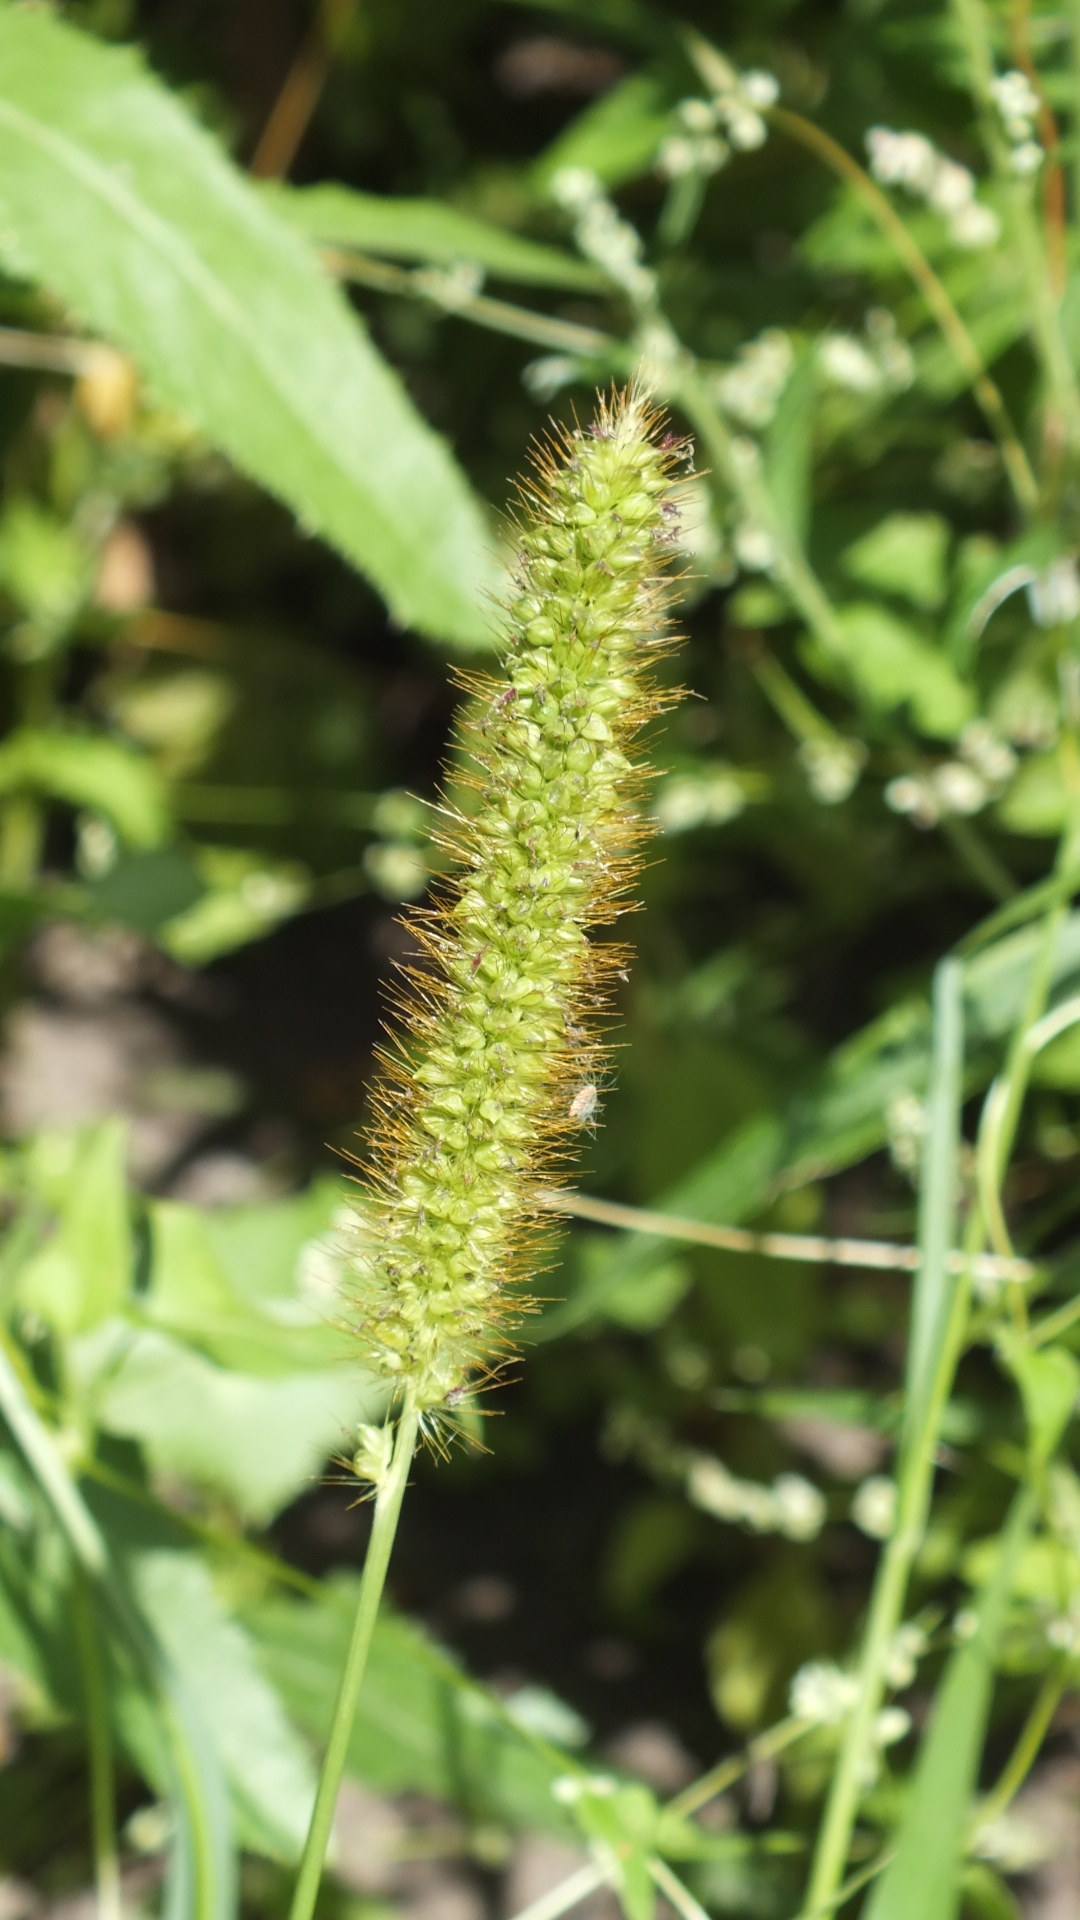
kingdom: Plantae
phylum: Tracheophyta
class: Liliopsida
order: Poales
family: Poaceae
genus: Setaria
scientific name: Setaria pumila
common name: Yellow bristle-grass
